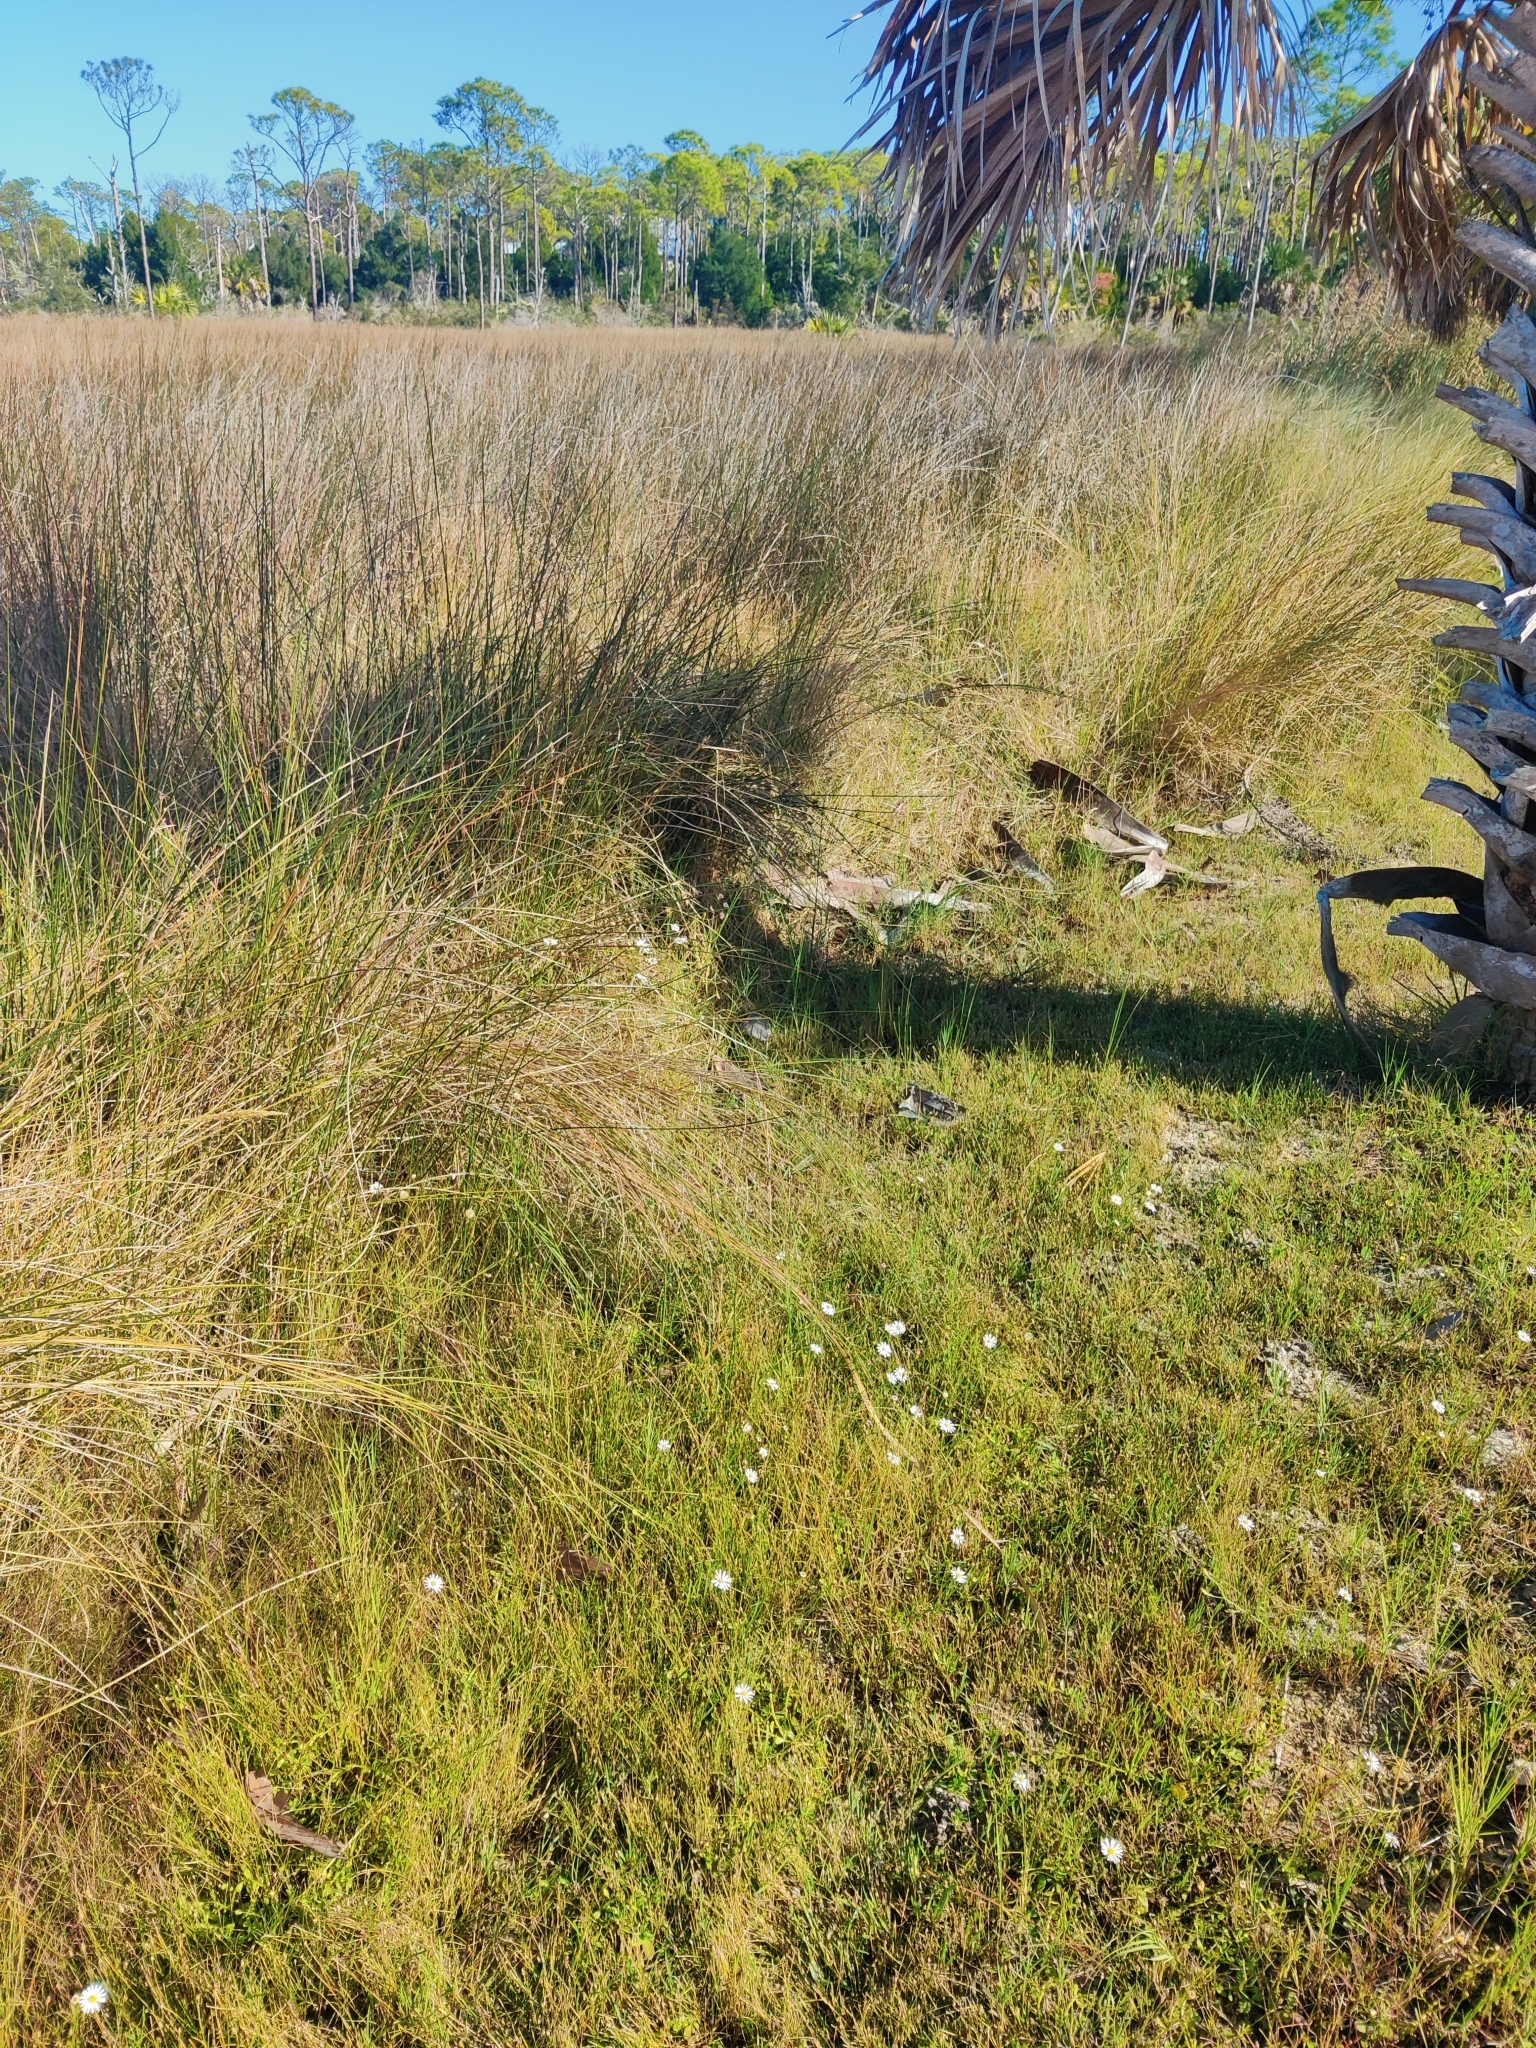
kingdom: Plantae
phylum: Tracheophyta
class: Magnoliopsida
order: Asterales
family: Asteraceae
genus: Symphyotrichum
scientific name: Symphyotrichum tenuifolium
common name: Perennial salt-marsh aster
